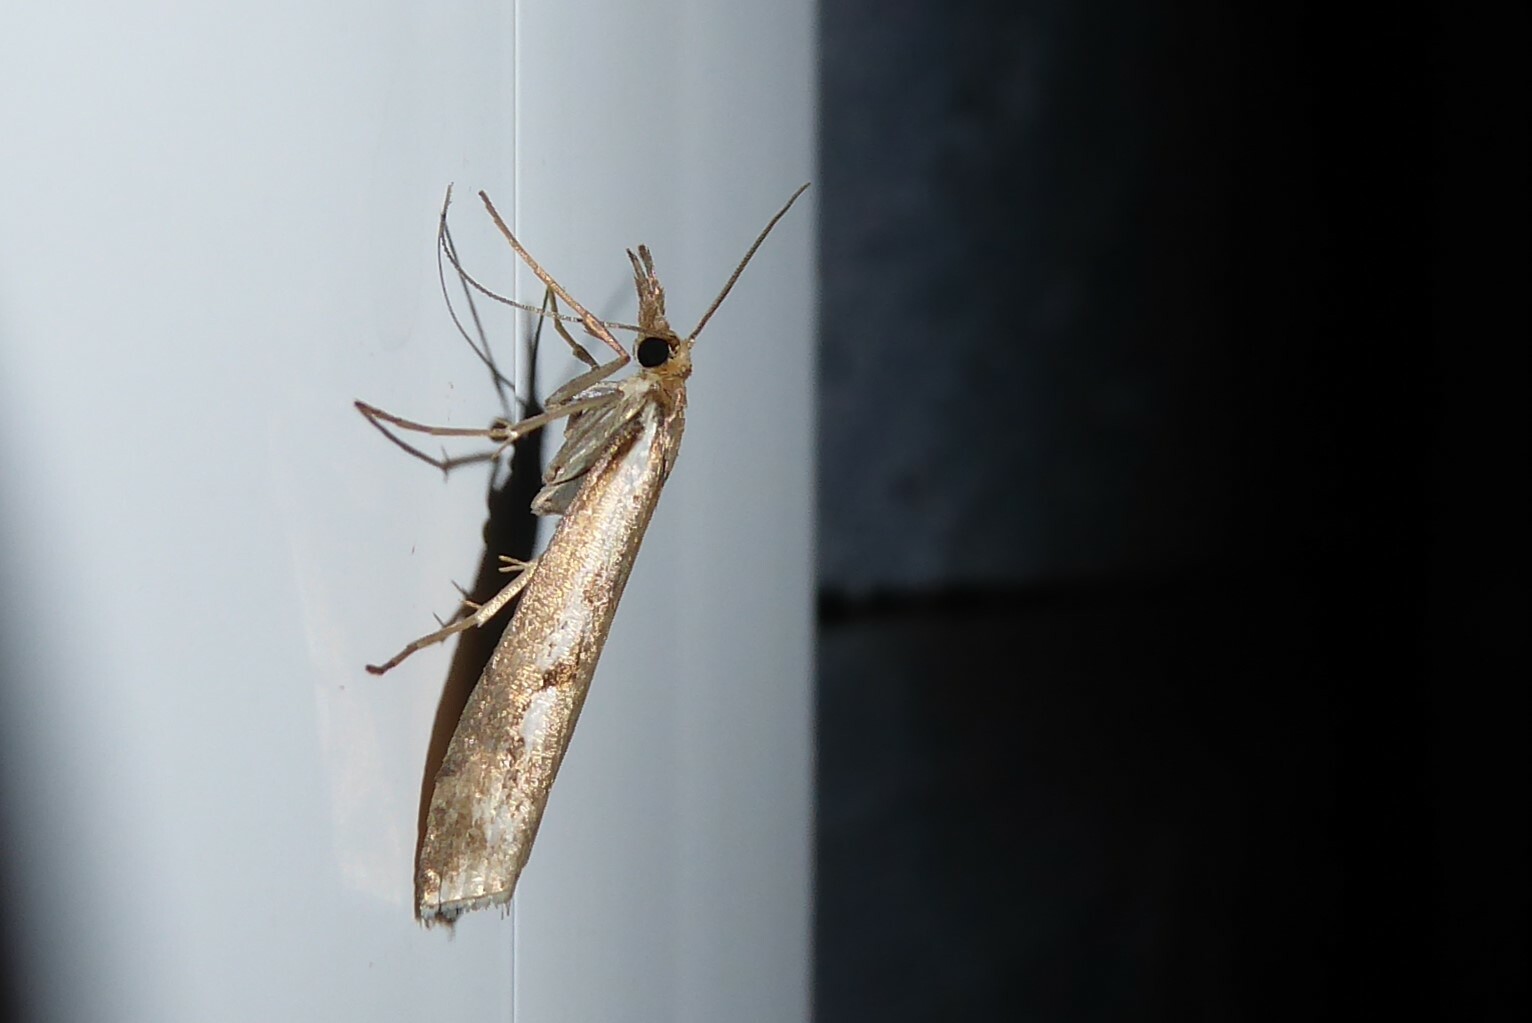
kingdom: Animalia
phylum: Arthropoda
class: Insecta
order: Lepidoptera
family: Crambidae
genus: Orocrambus
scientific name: Orocrambus vulgaris
